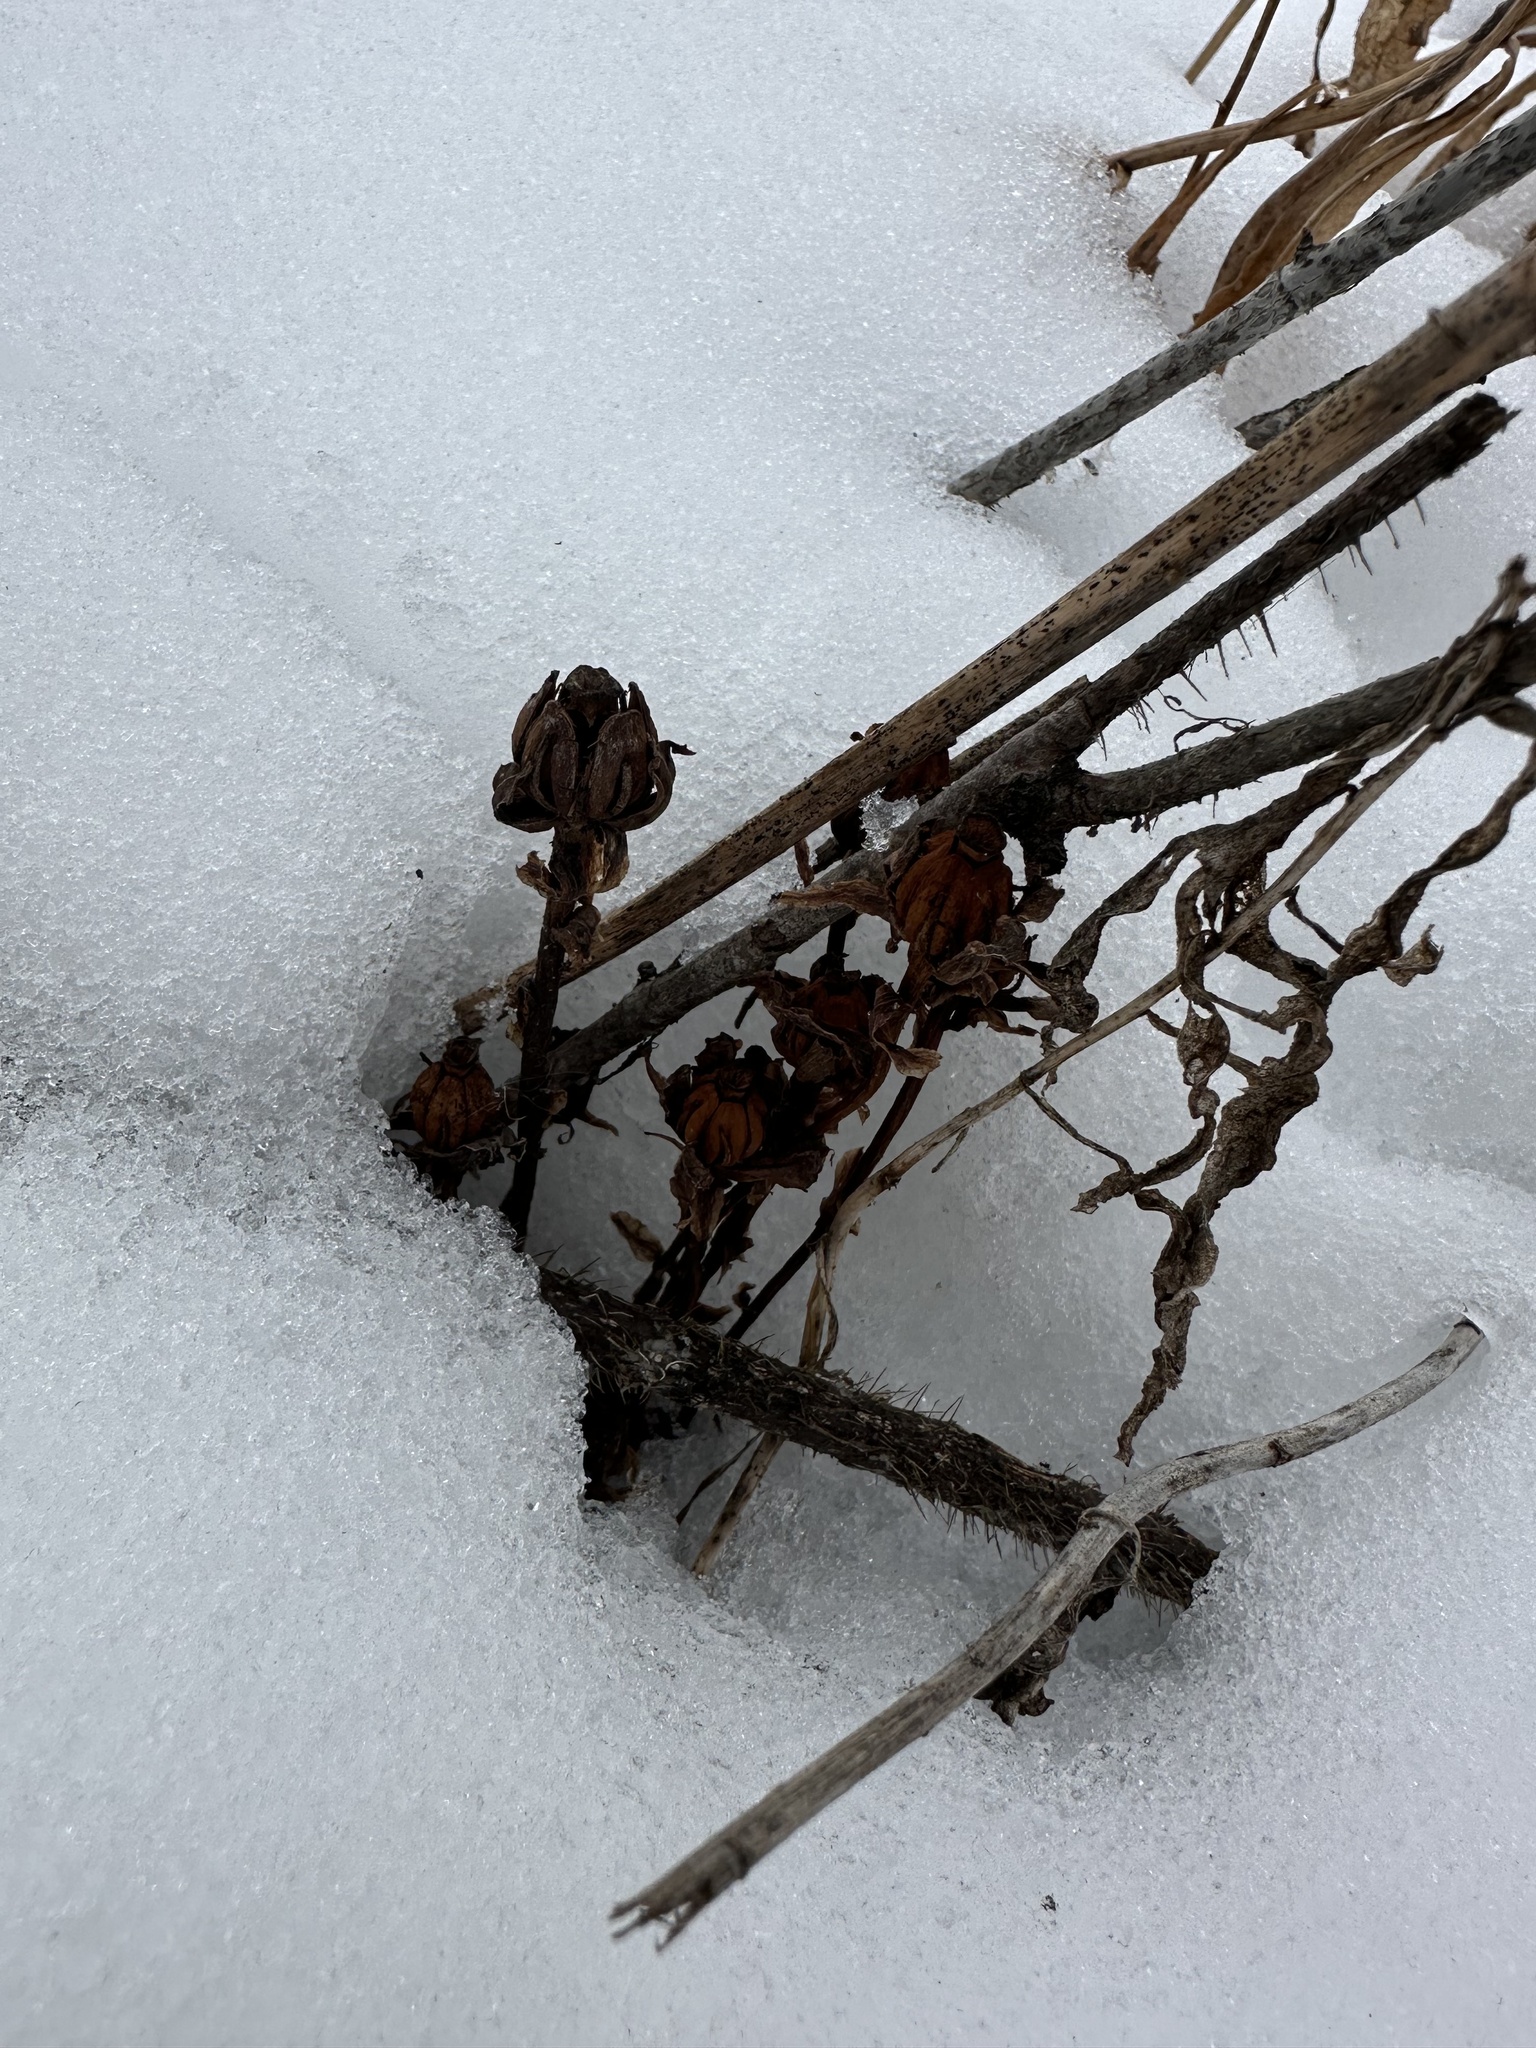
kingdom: Plantae
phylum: Tracheophyta
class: Magnoliopsida
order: Ericales
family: Ericaceae
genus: Monotropa
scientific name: Monotropa uniflora
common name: Convulsion root
